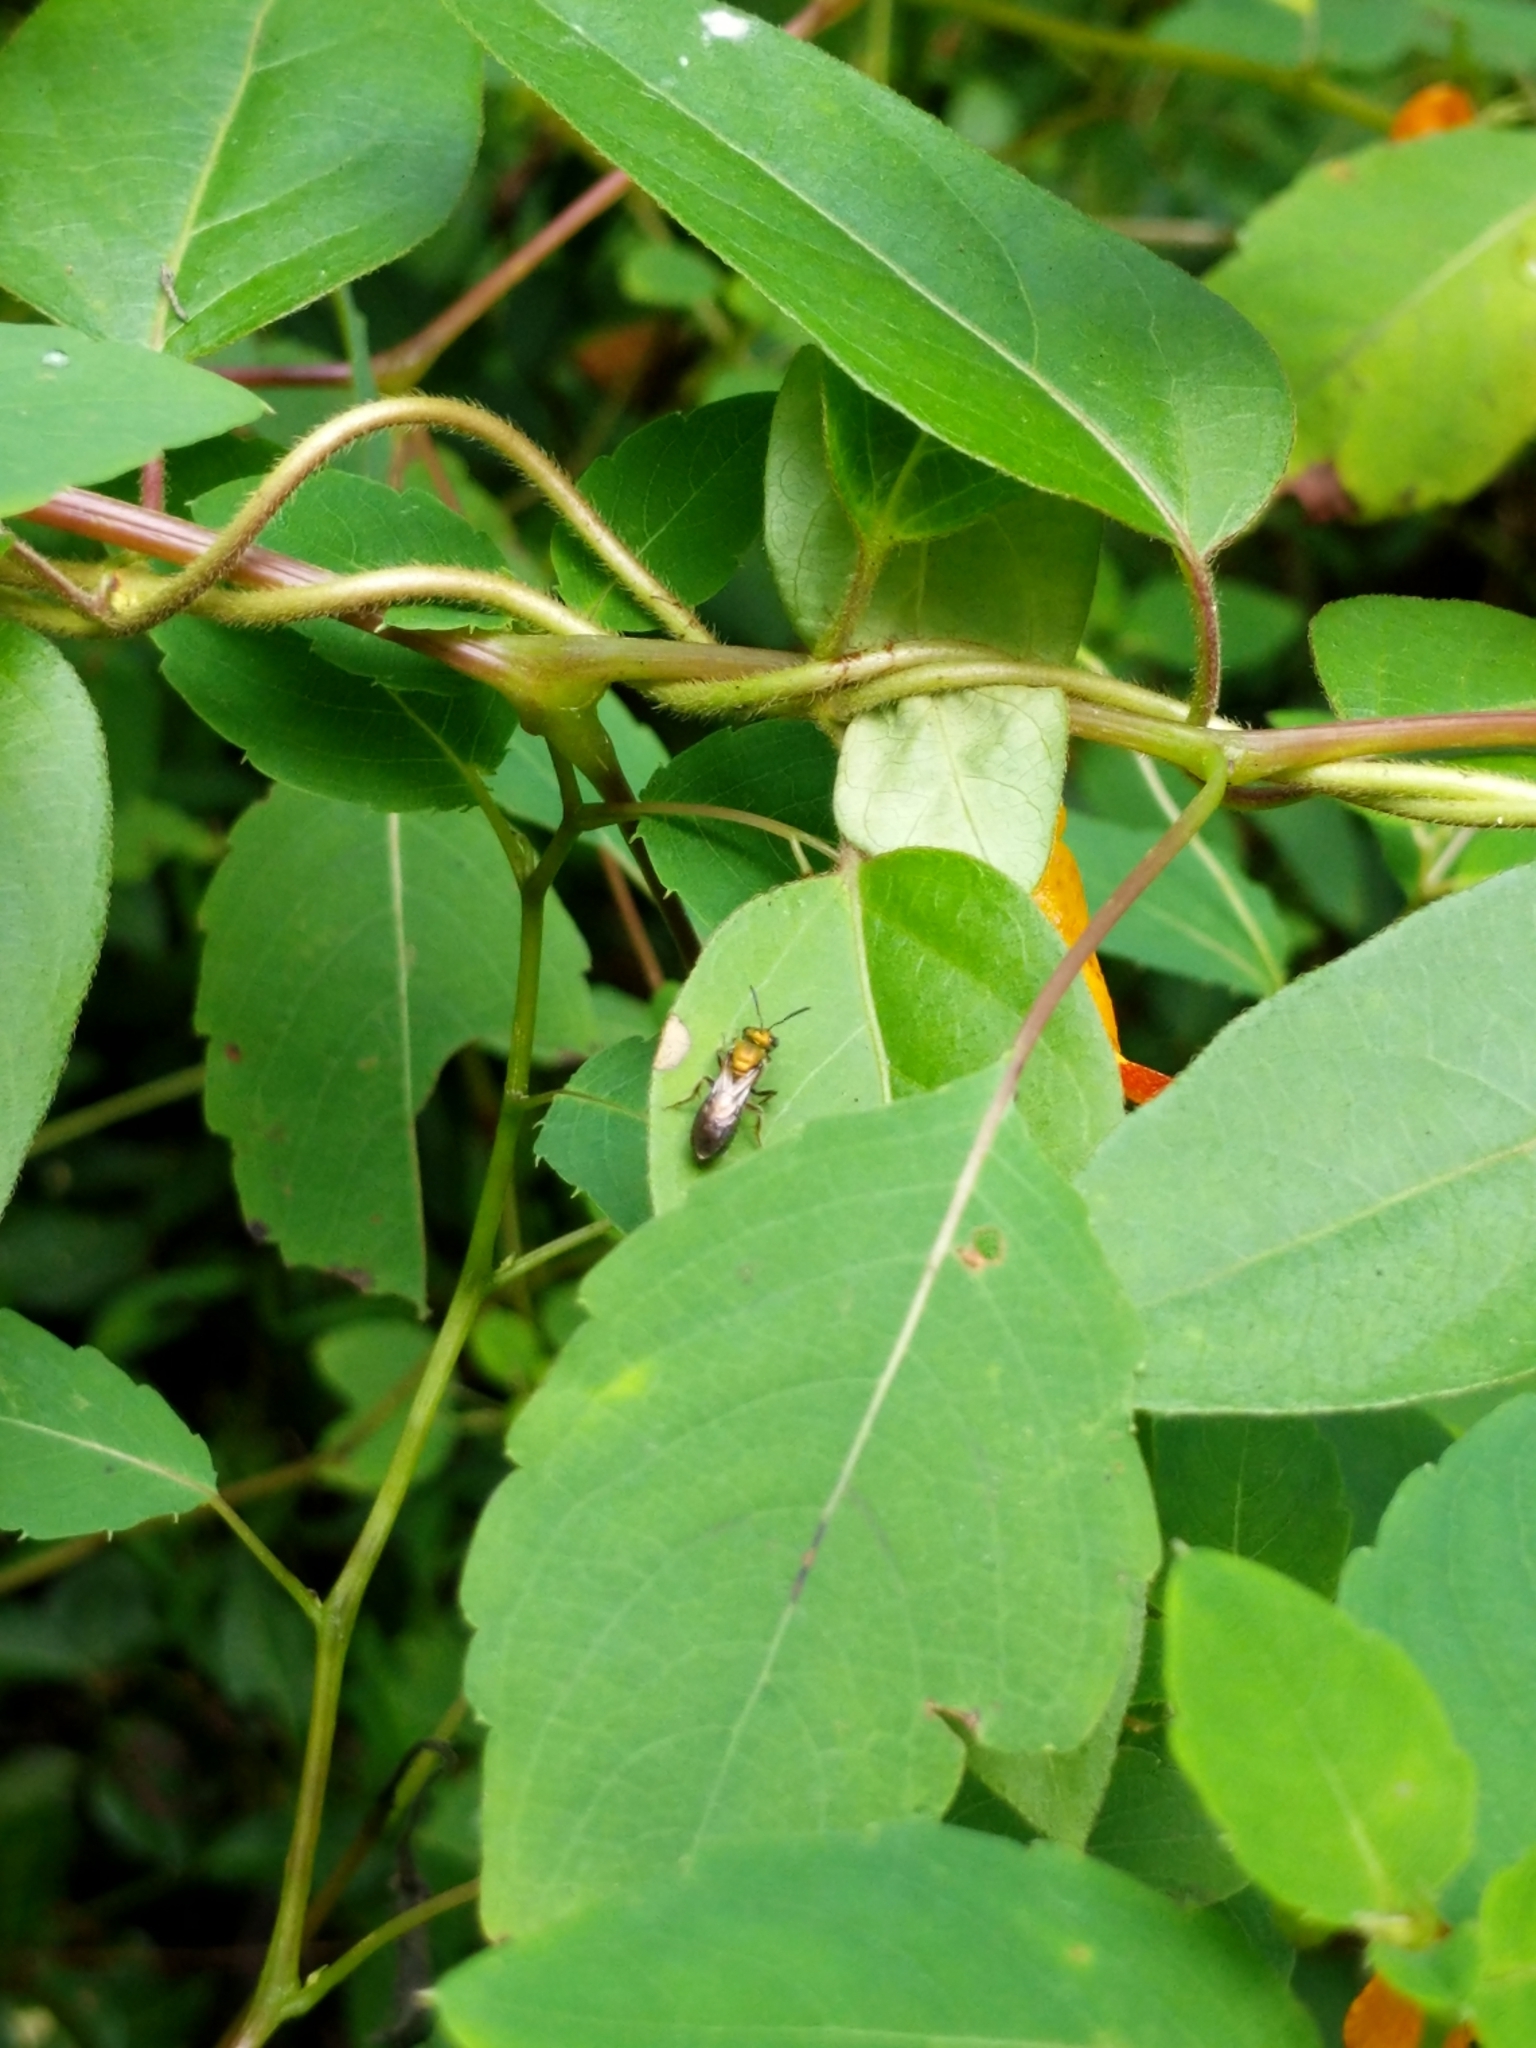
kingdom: Animalia
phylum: Arthropoda
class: Insecta
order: Hymenoptera
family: Halictidae
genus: Augochlora
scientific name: Augochlora pura
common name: Pure green sweat bee
